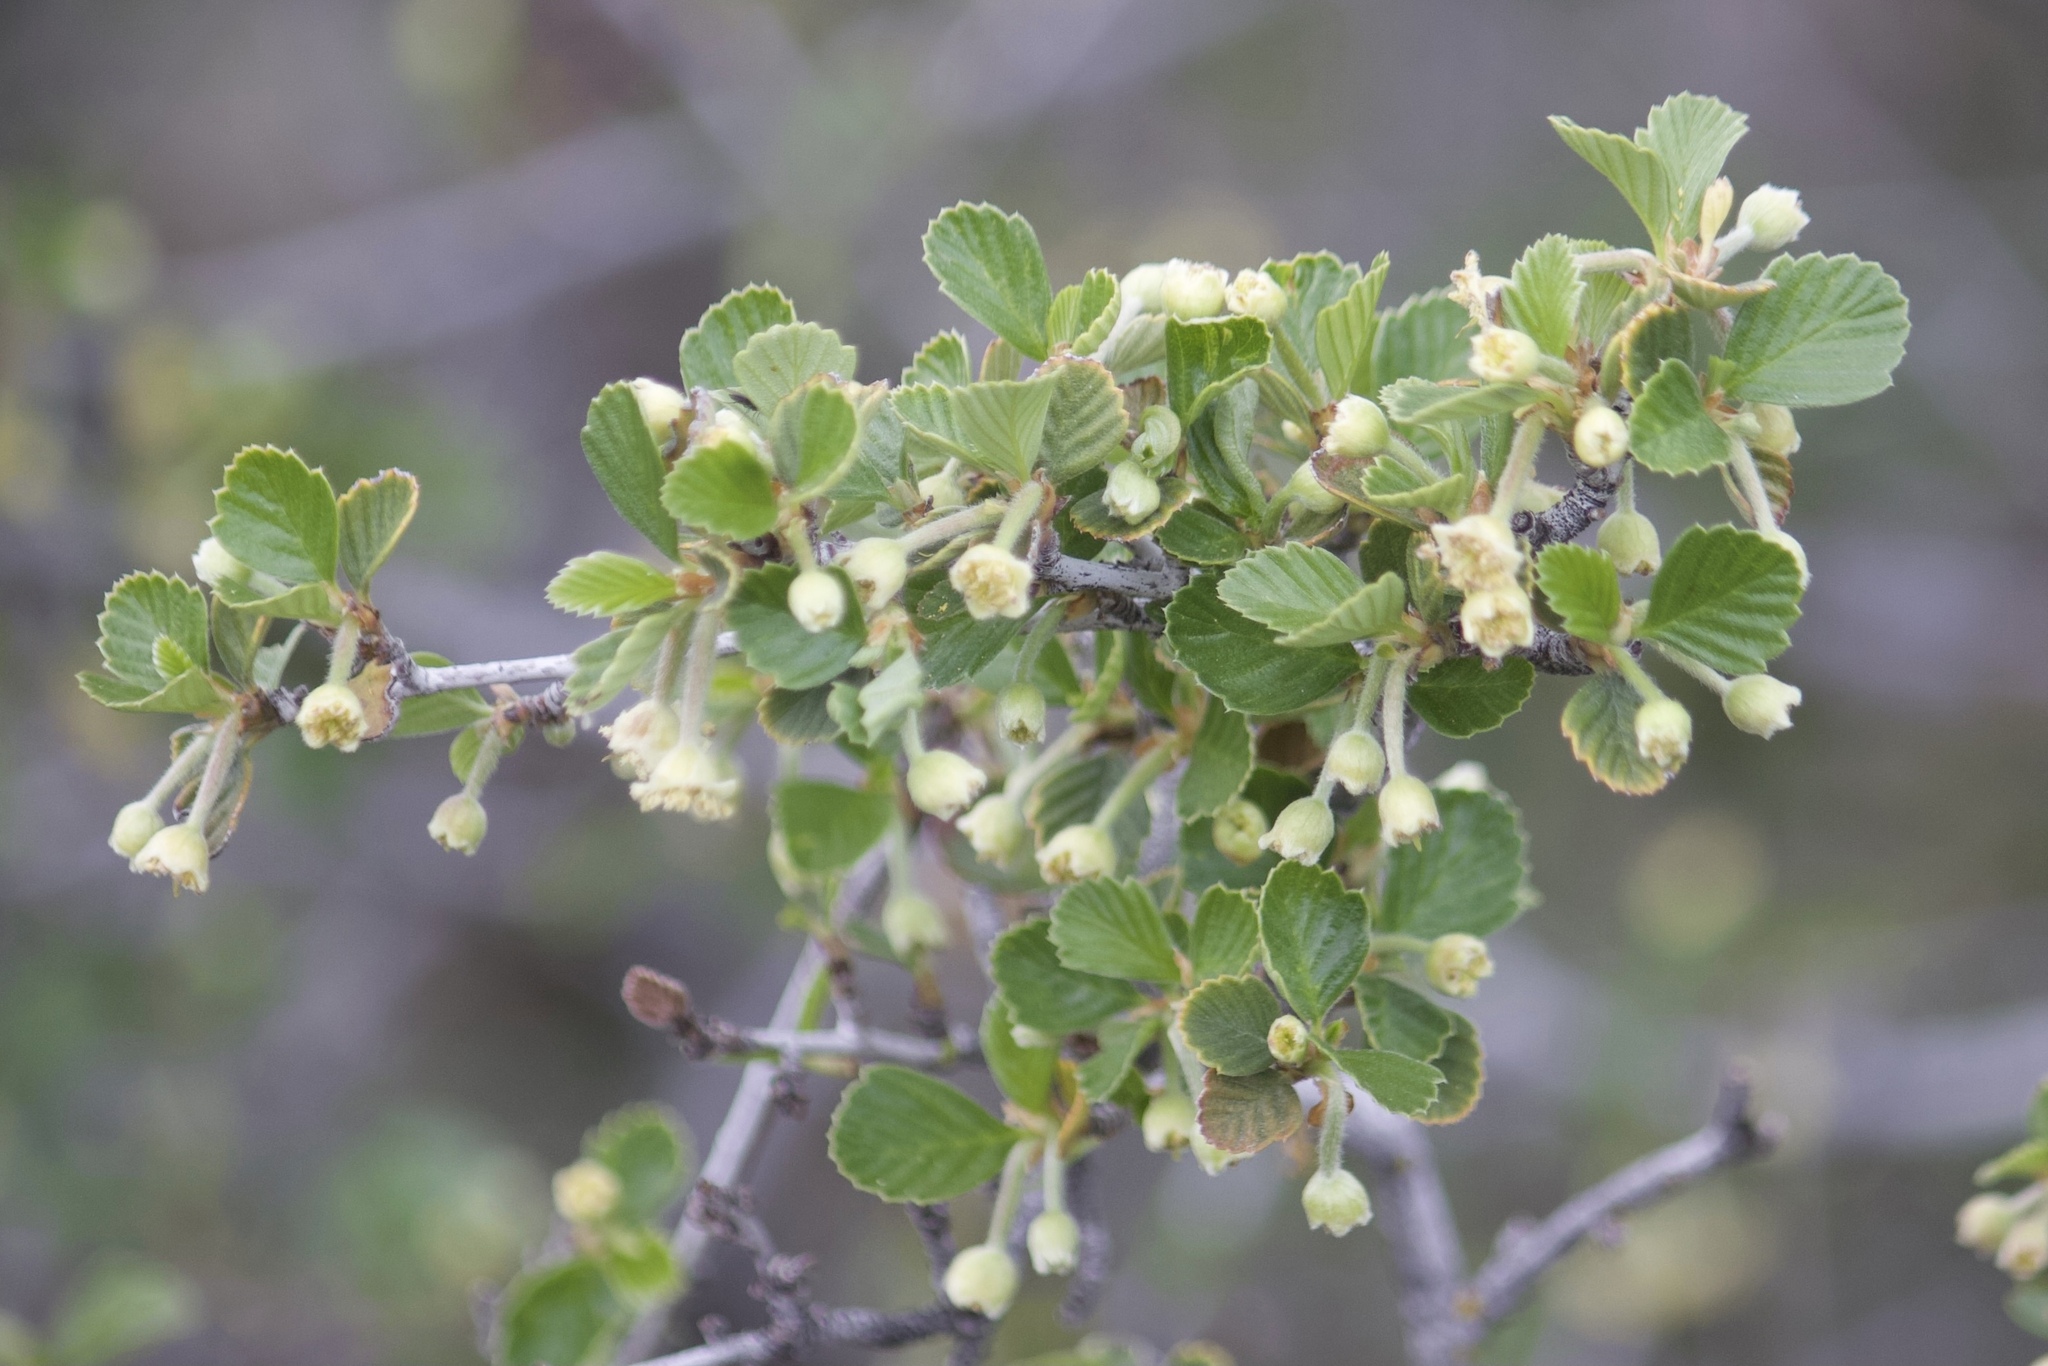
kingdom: Plantae
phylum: Tracheophyta
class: Magnoliopsida
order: Rosales
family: Rosaceae
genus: Cercocarpus
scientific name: Cercocarpus betuloides
